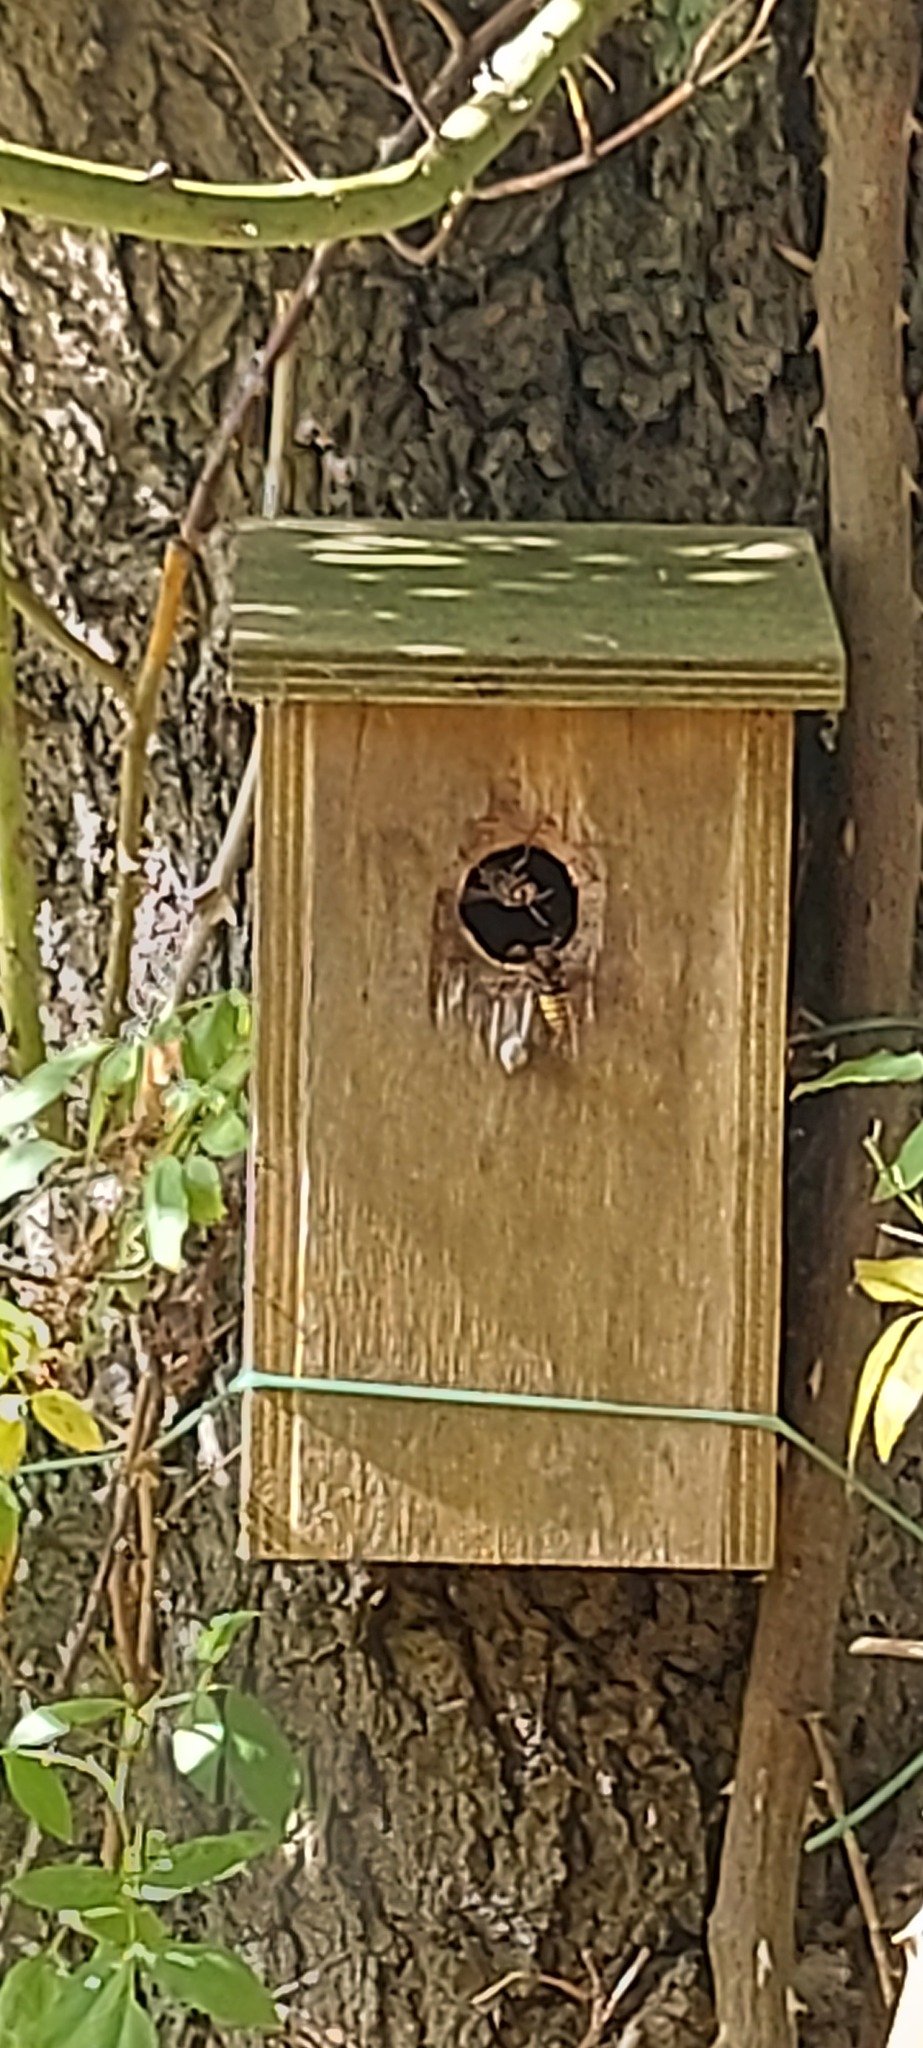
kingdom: Animalia
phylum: Arthropoda
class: Insecta
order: Hymenoptera
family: Vespidae
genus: Vespa
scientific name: Vespa crabro
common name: Hornet
